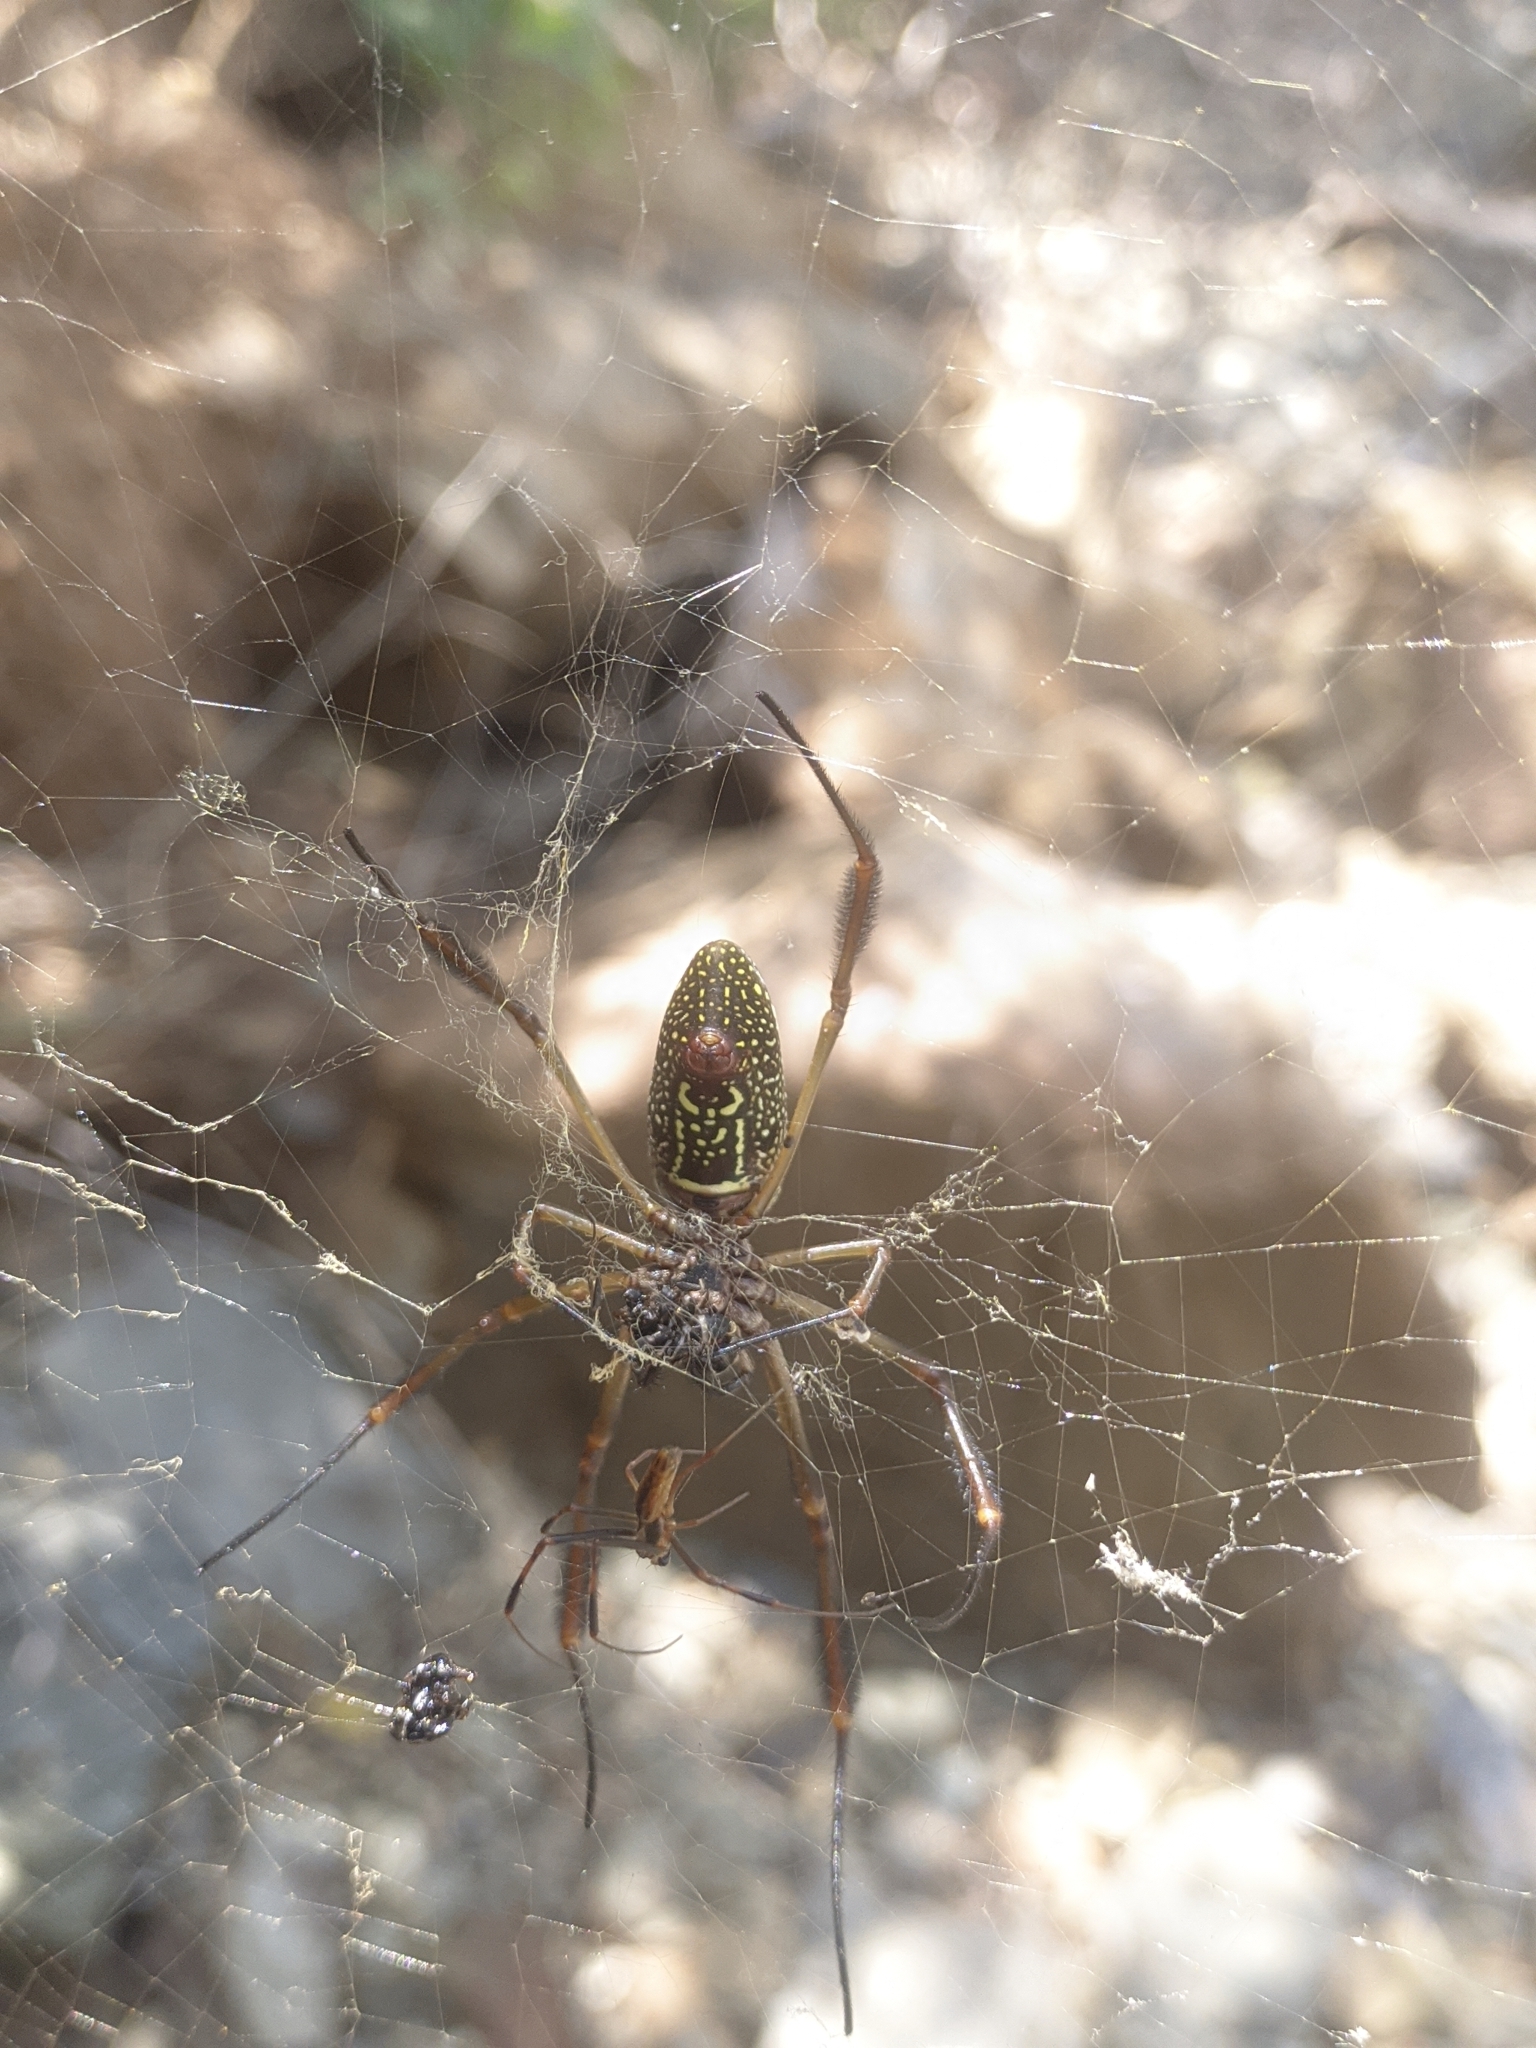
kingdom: Animalia
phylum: Arthropoda
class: Arachnida
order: Araneae
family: Araneidae
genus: Trichonephila
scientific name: Trichonephila clavipes
